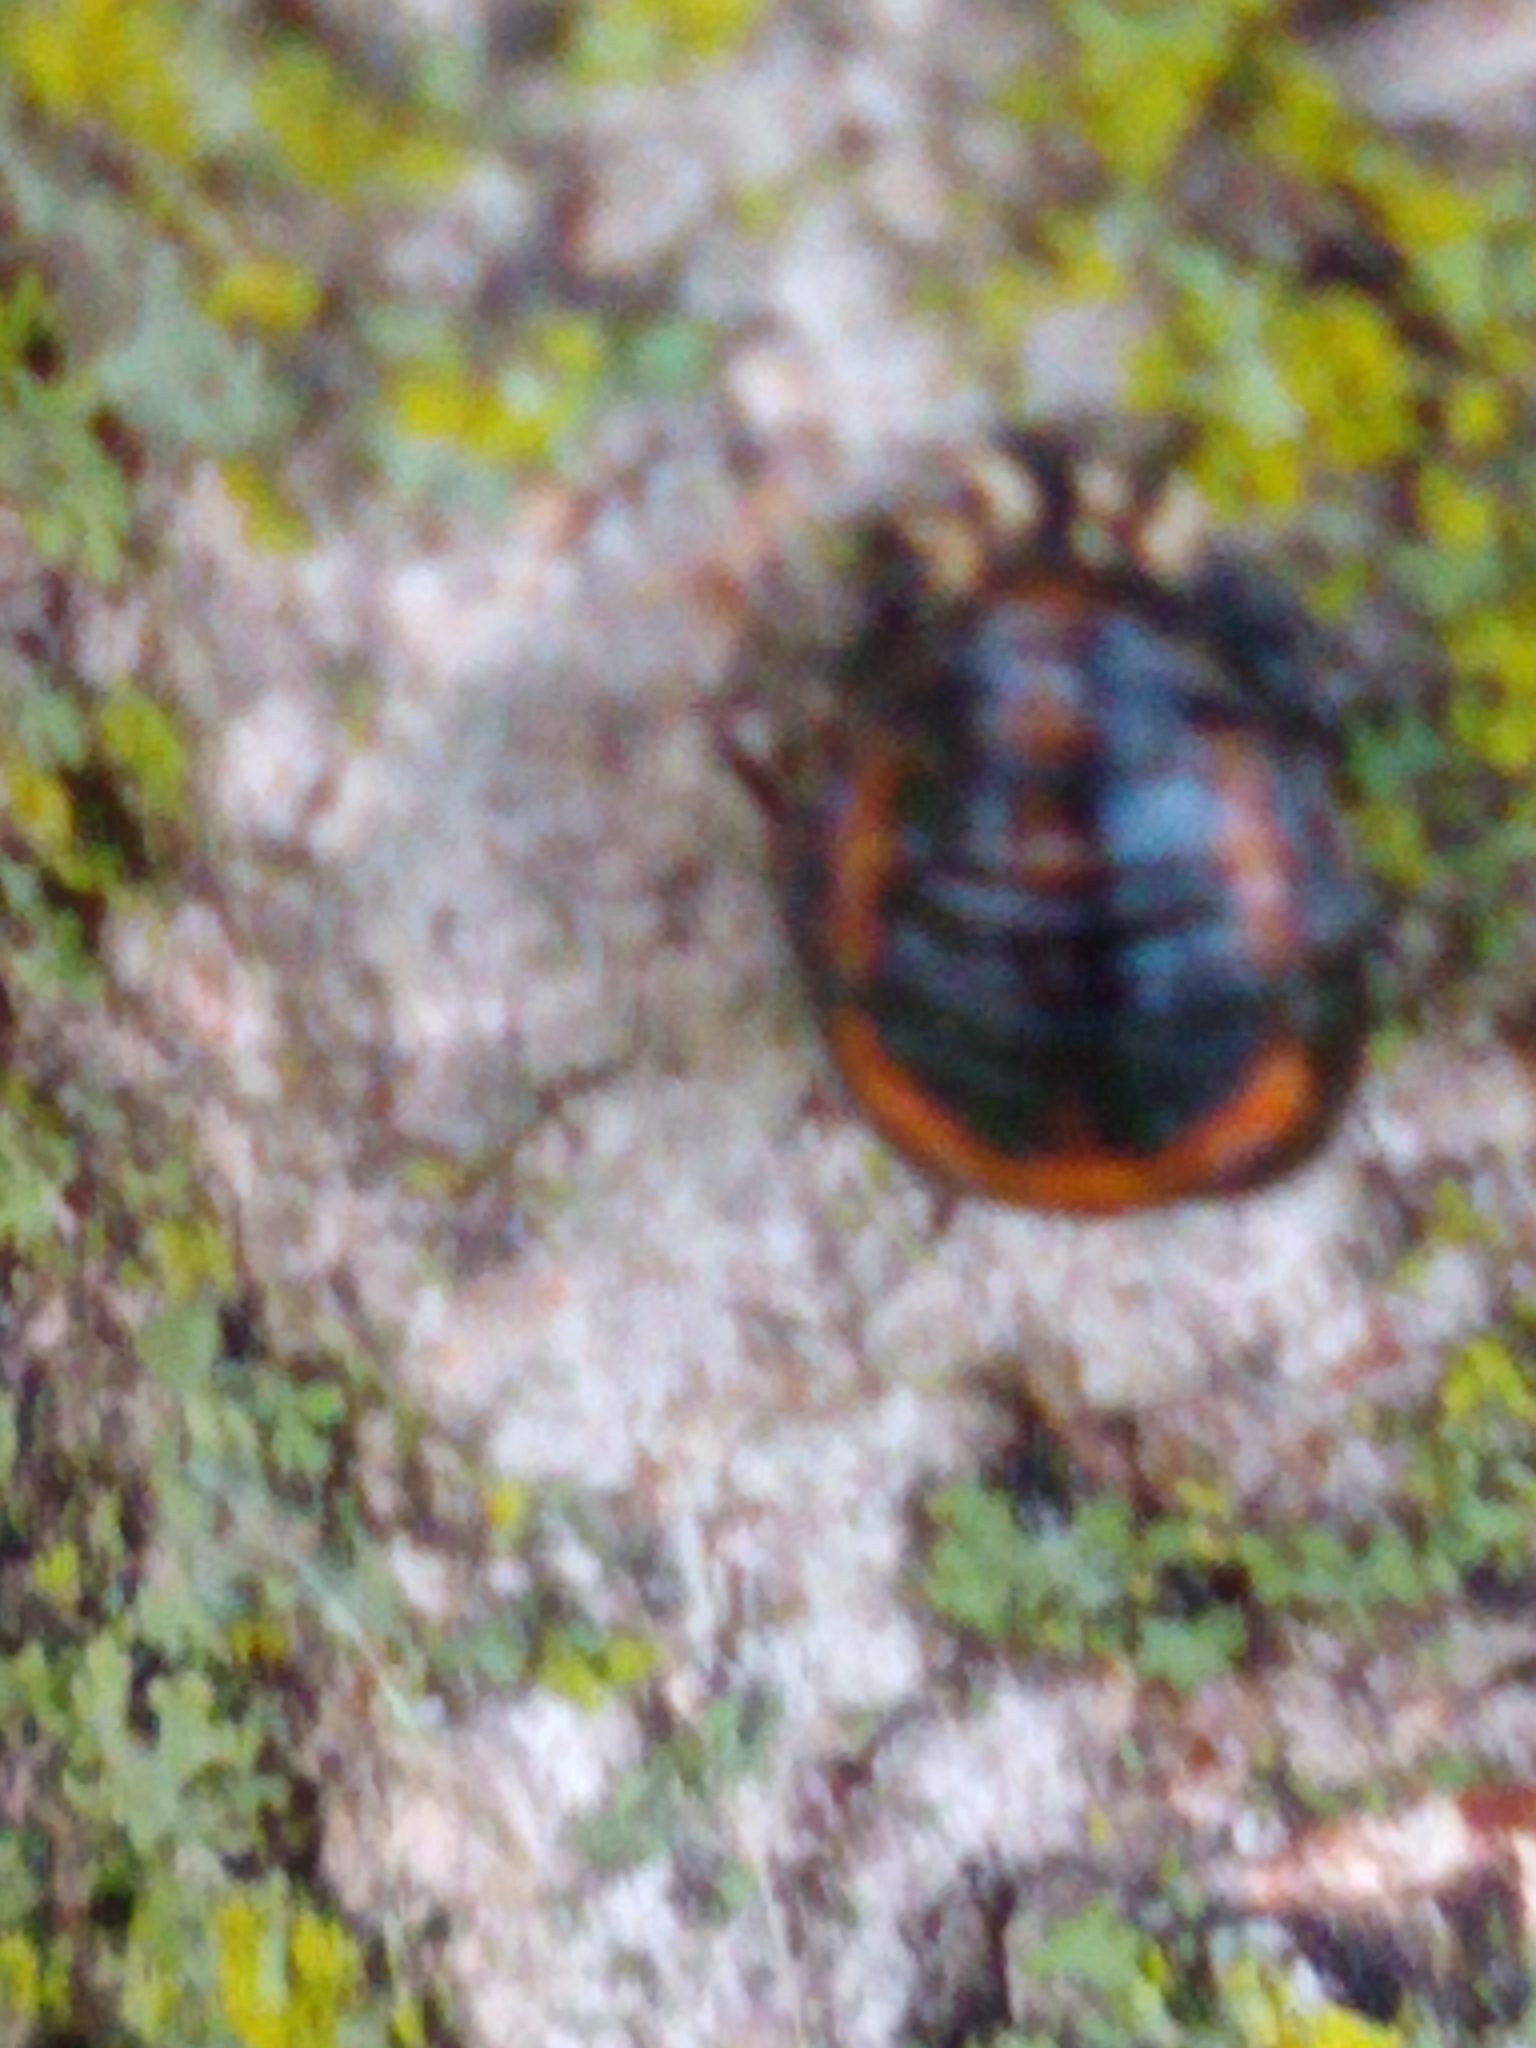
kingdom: Animalia
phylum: Arthropoda
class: Insecta
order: Coleoptera
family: Coccinellidae
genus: Harmonia
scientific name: Harmonia axyridis
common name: Harlequin ladybird
